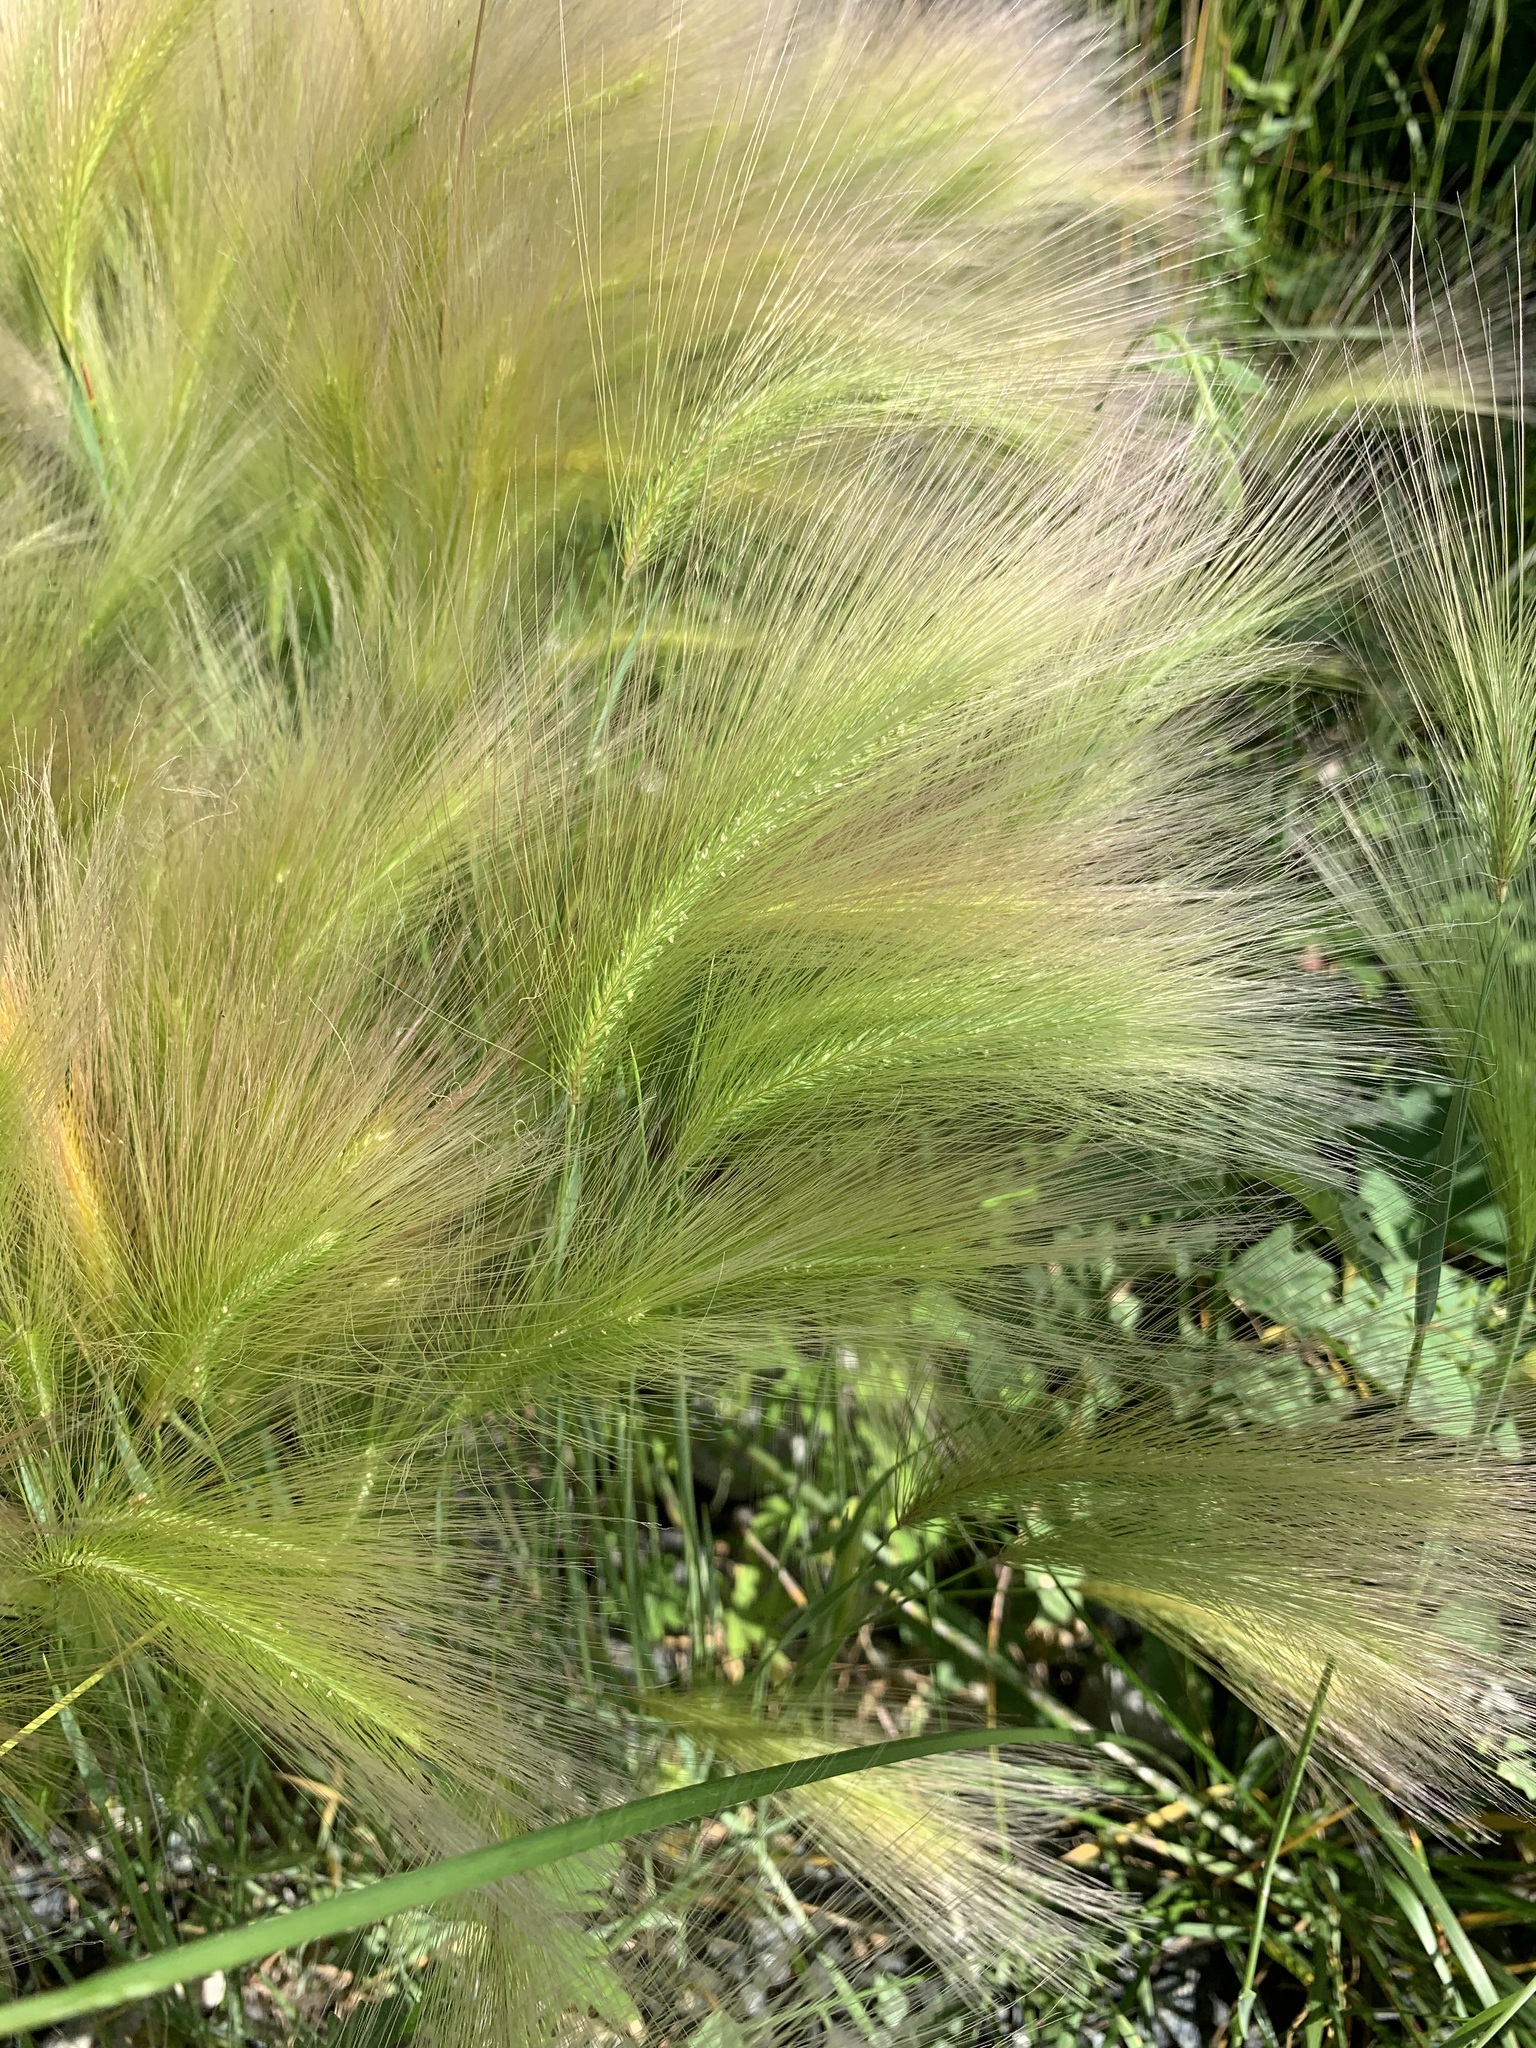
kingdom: Plantae
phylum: Tracheophyta
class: Liliopsida
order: Poales
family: Poaceae
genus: Hordeum
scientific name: Hordeum jubatum
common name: Foxtail barley
